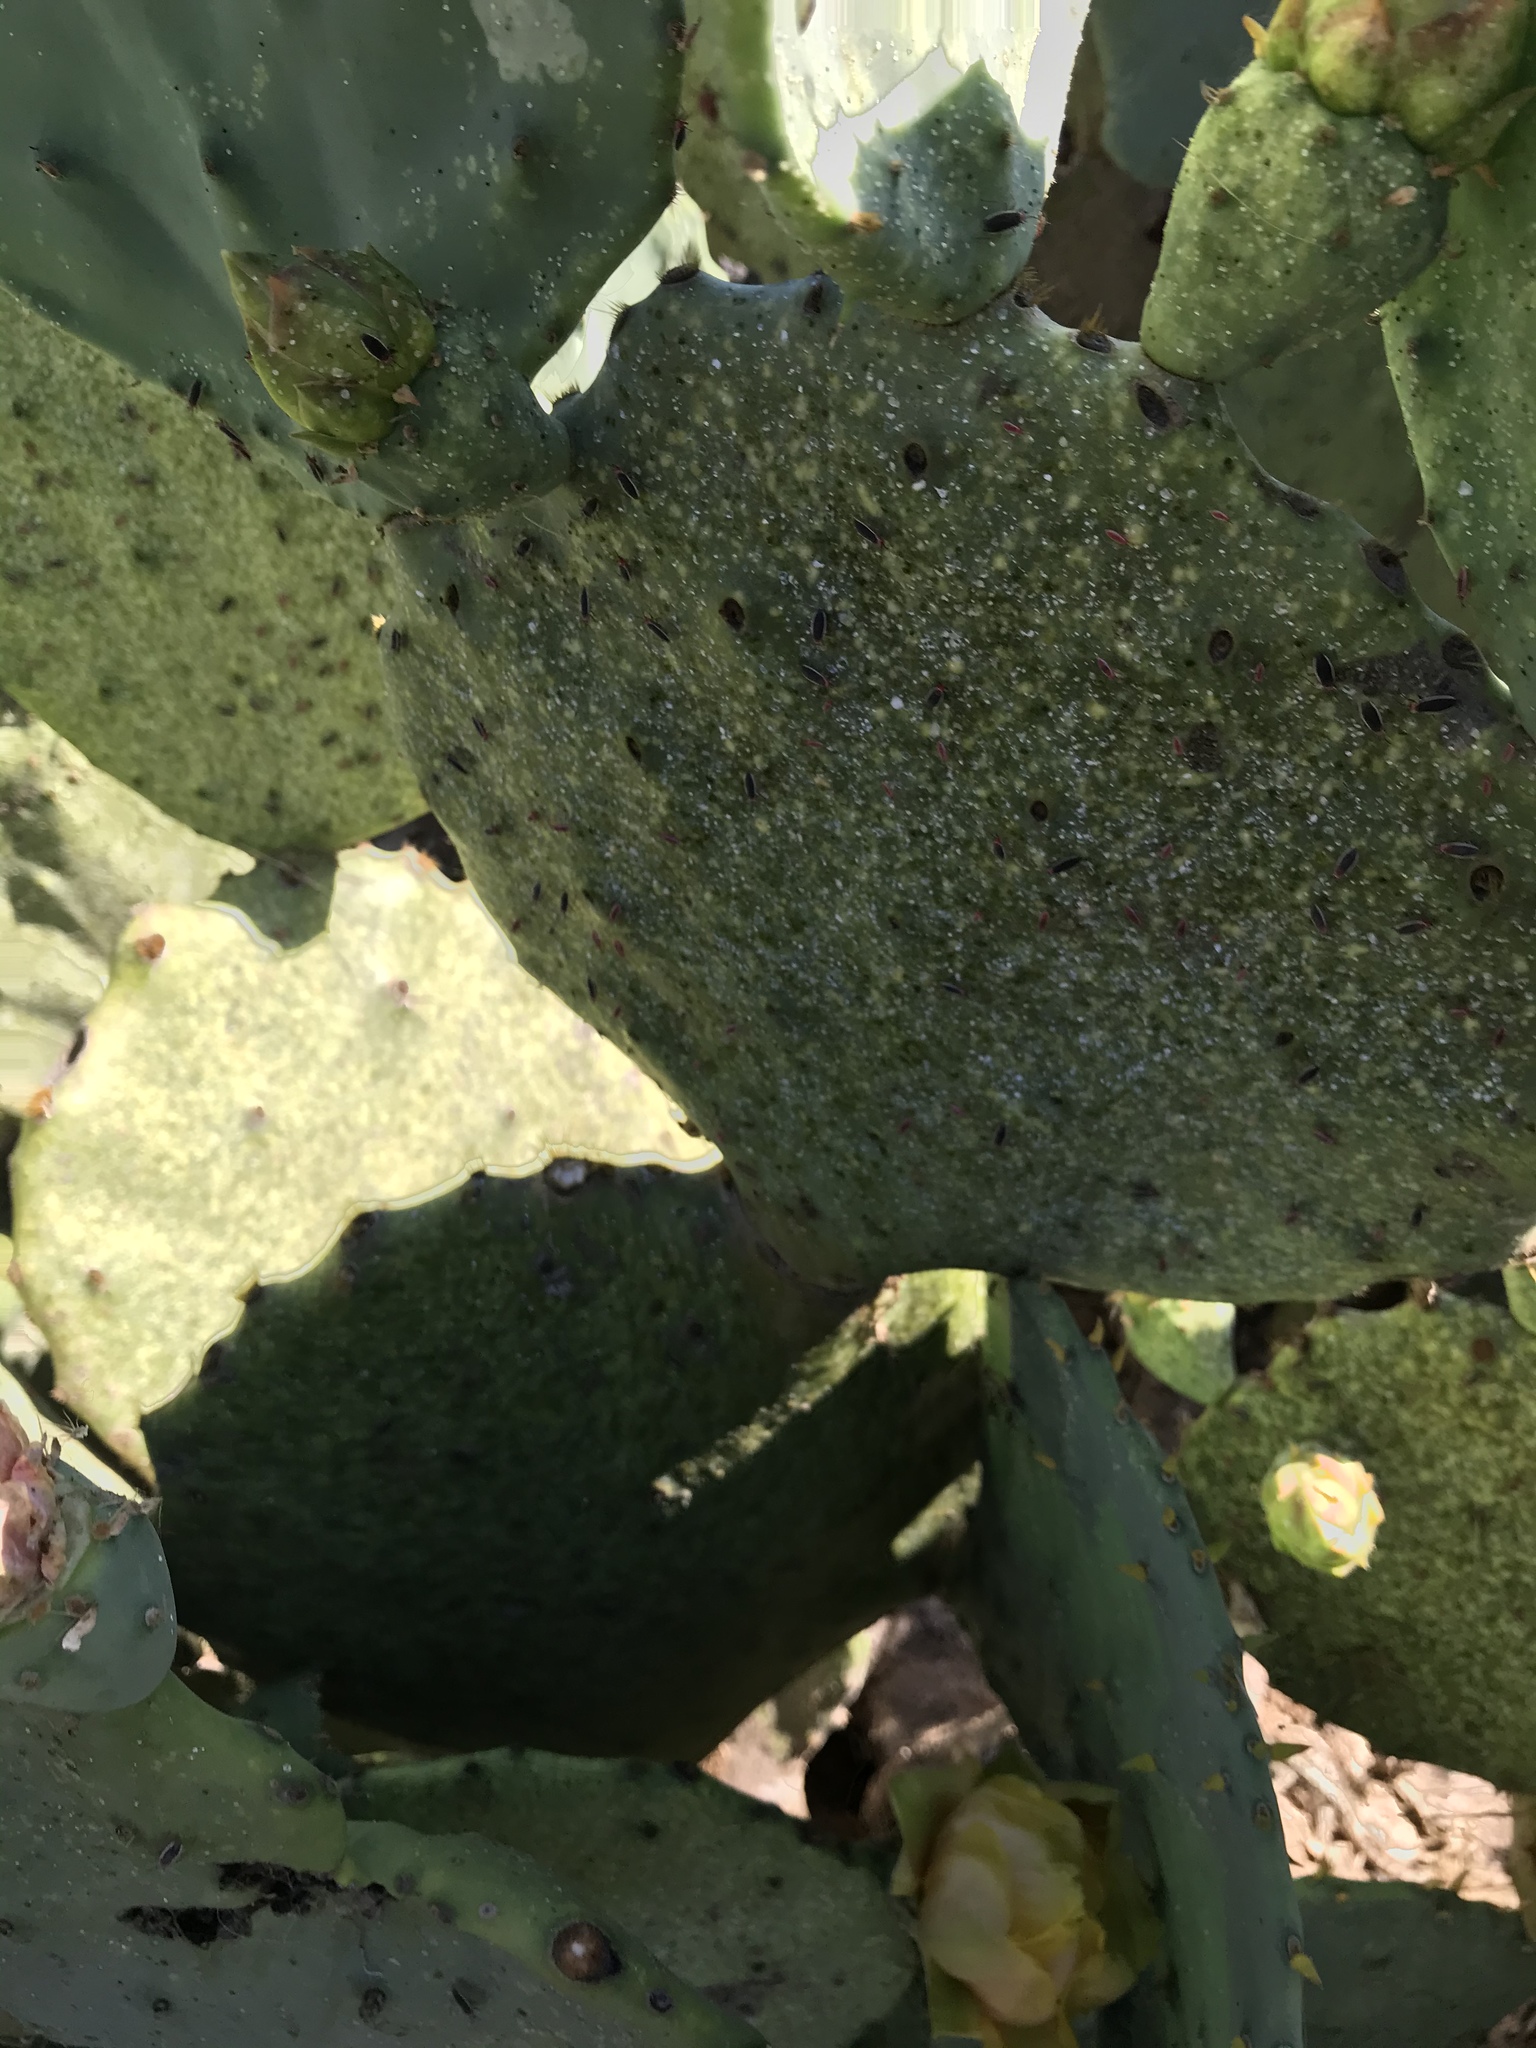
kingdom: Animalia
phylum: Arthropoda
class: Insecta
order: Hemiptera
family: Miridae
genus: Hesperolabops
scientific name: Hesperolabops gelastops
